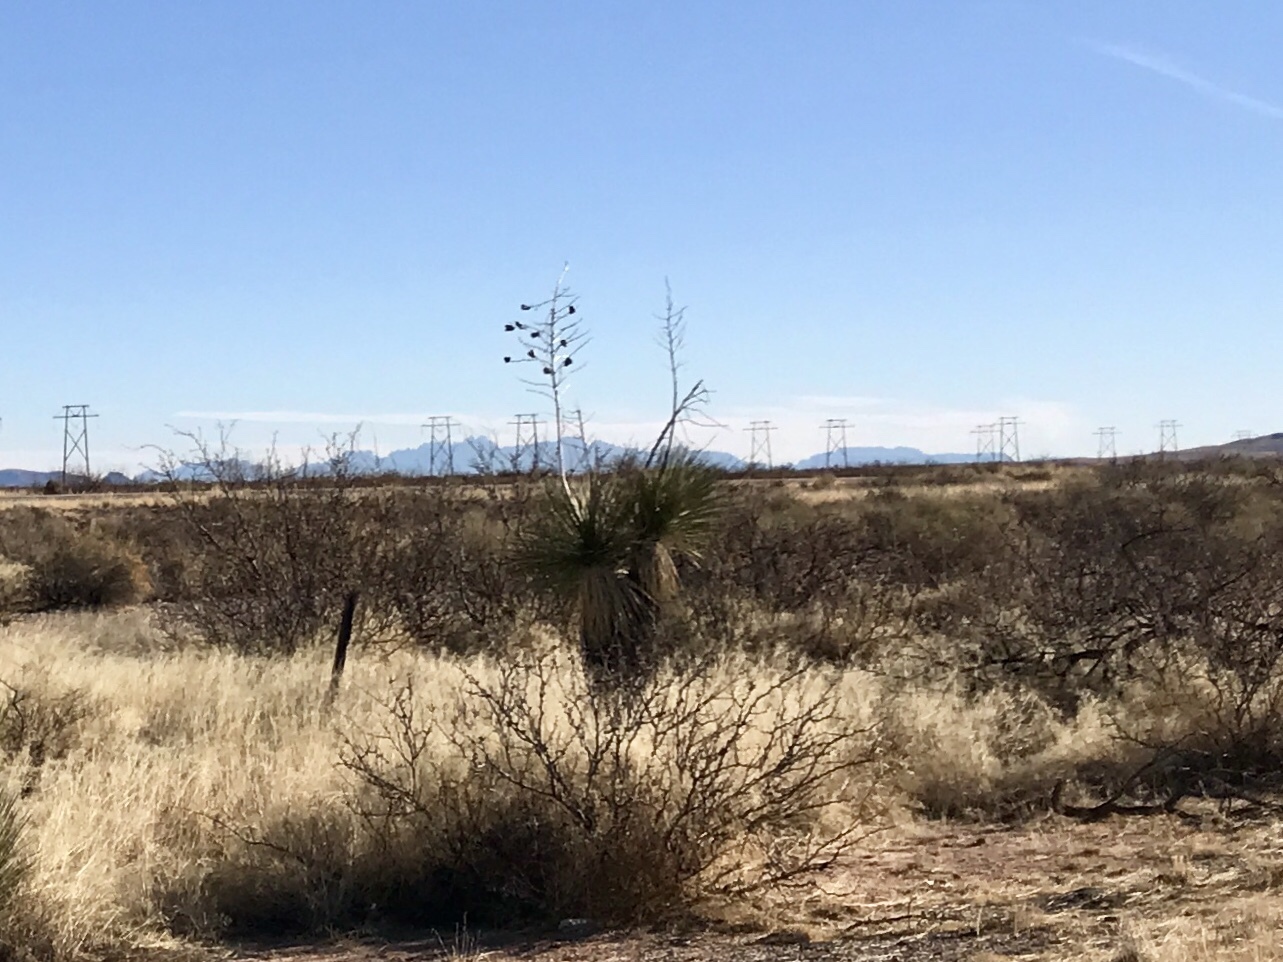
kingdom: Plantae
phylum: Tracheophyta
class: Liliopsida
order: Asparagales
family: Asparagaceae
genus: Yucca
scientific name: Yucca elata
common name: Palmella
